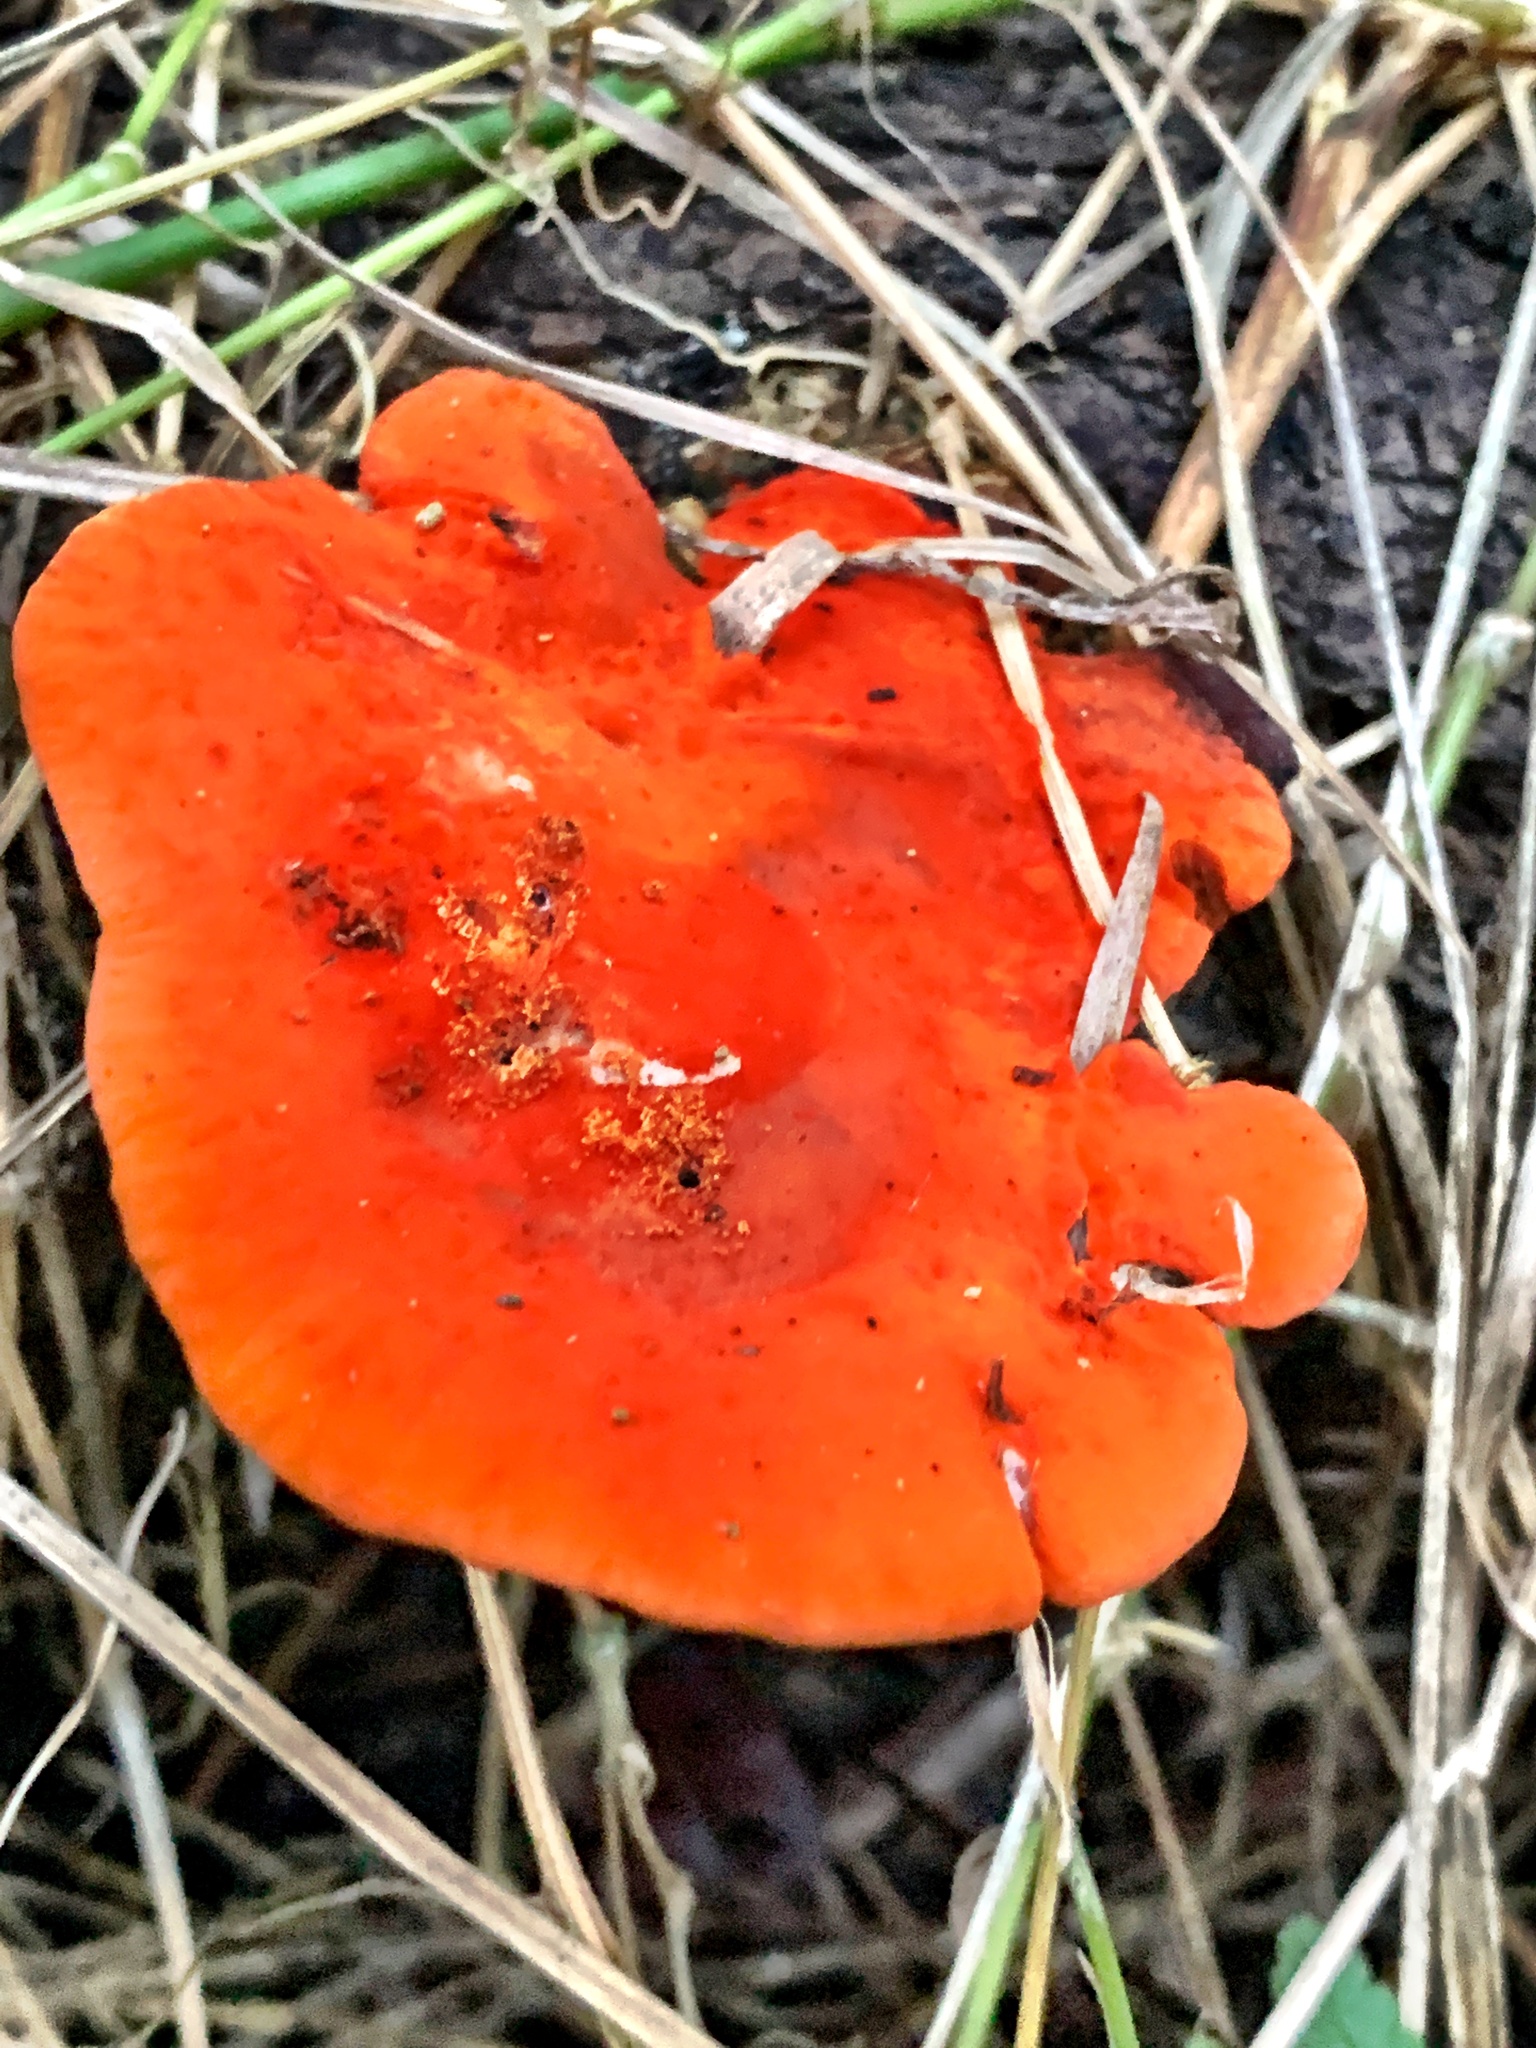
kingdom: Fungi
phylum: Basidiomycota
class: Agaricomycetes
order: Polyporales
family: Polyporaceae
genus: Trametes
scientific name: Trametes coccinea
